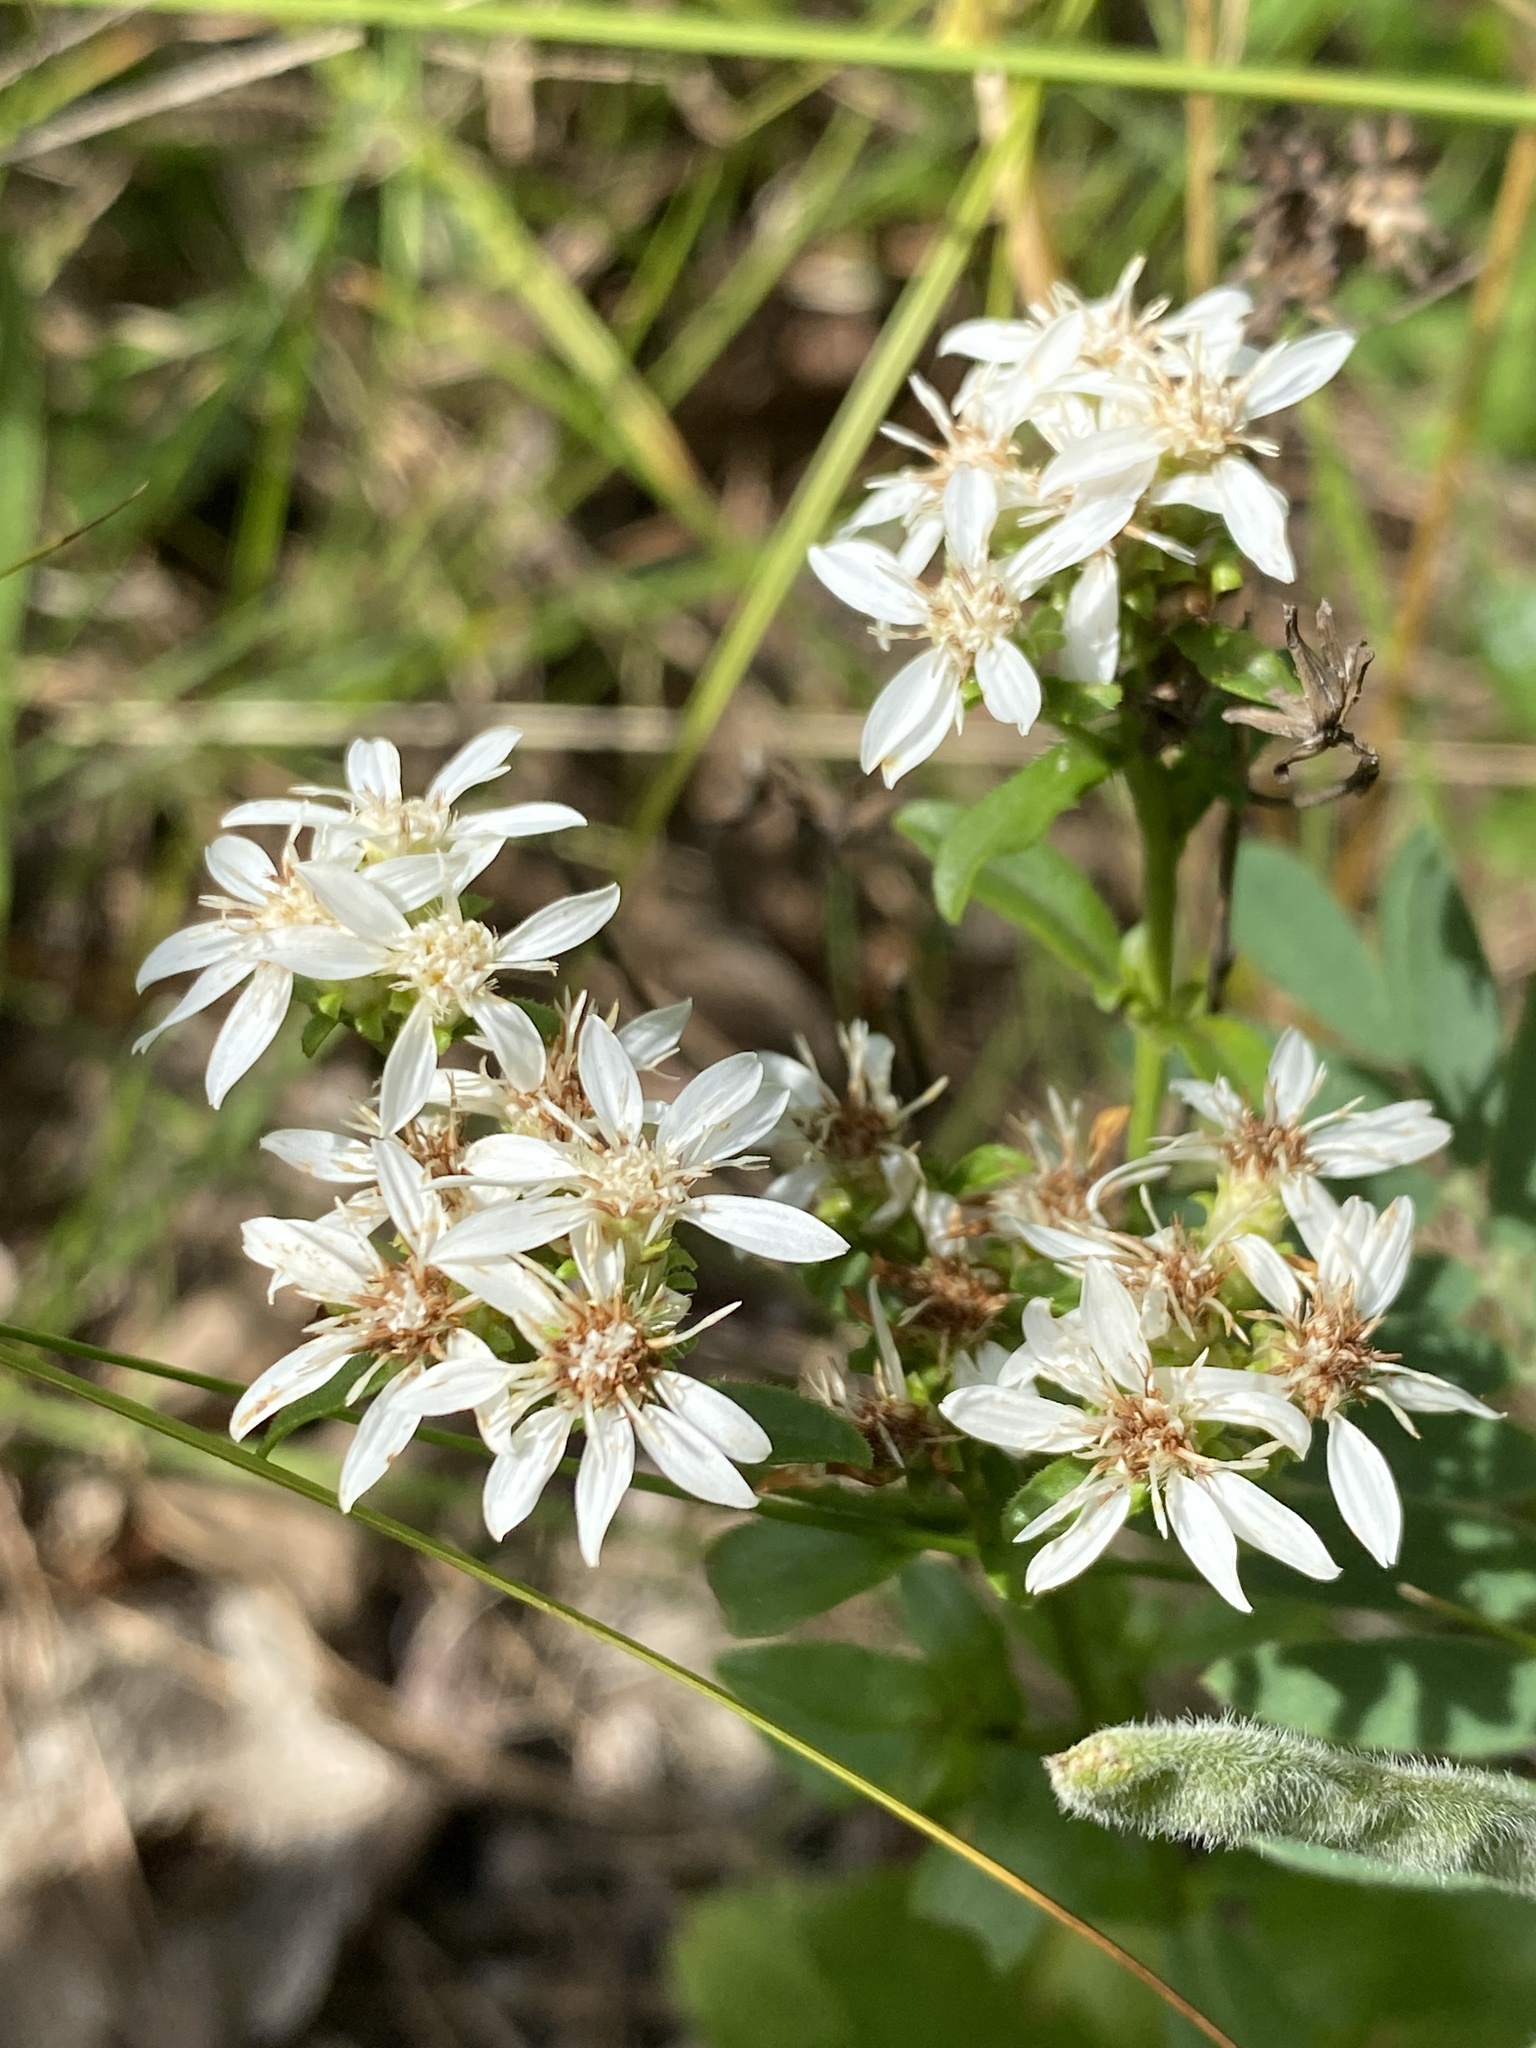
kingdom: Plantae
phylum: Tracheophyta
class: Magnoliopsida
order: Asterales
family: Asteraceae
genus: Sericocarpus
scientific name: Sericocarpus asteroides
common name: Toothed white-top aster
